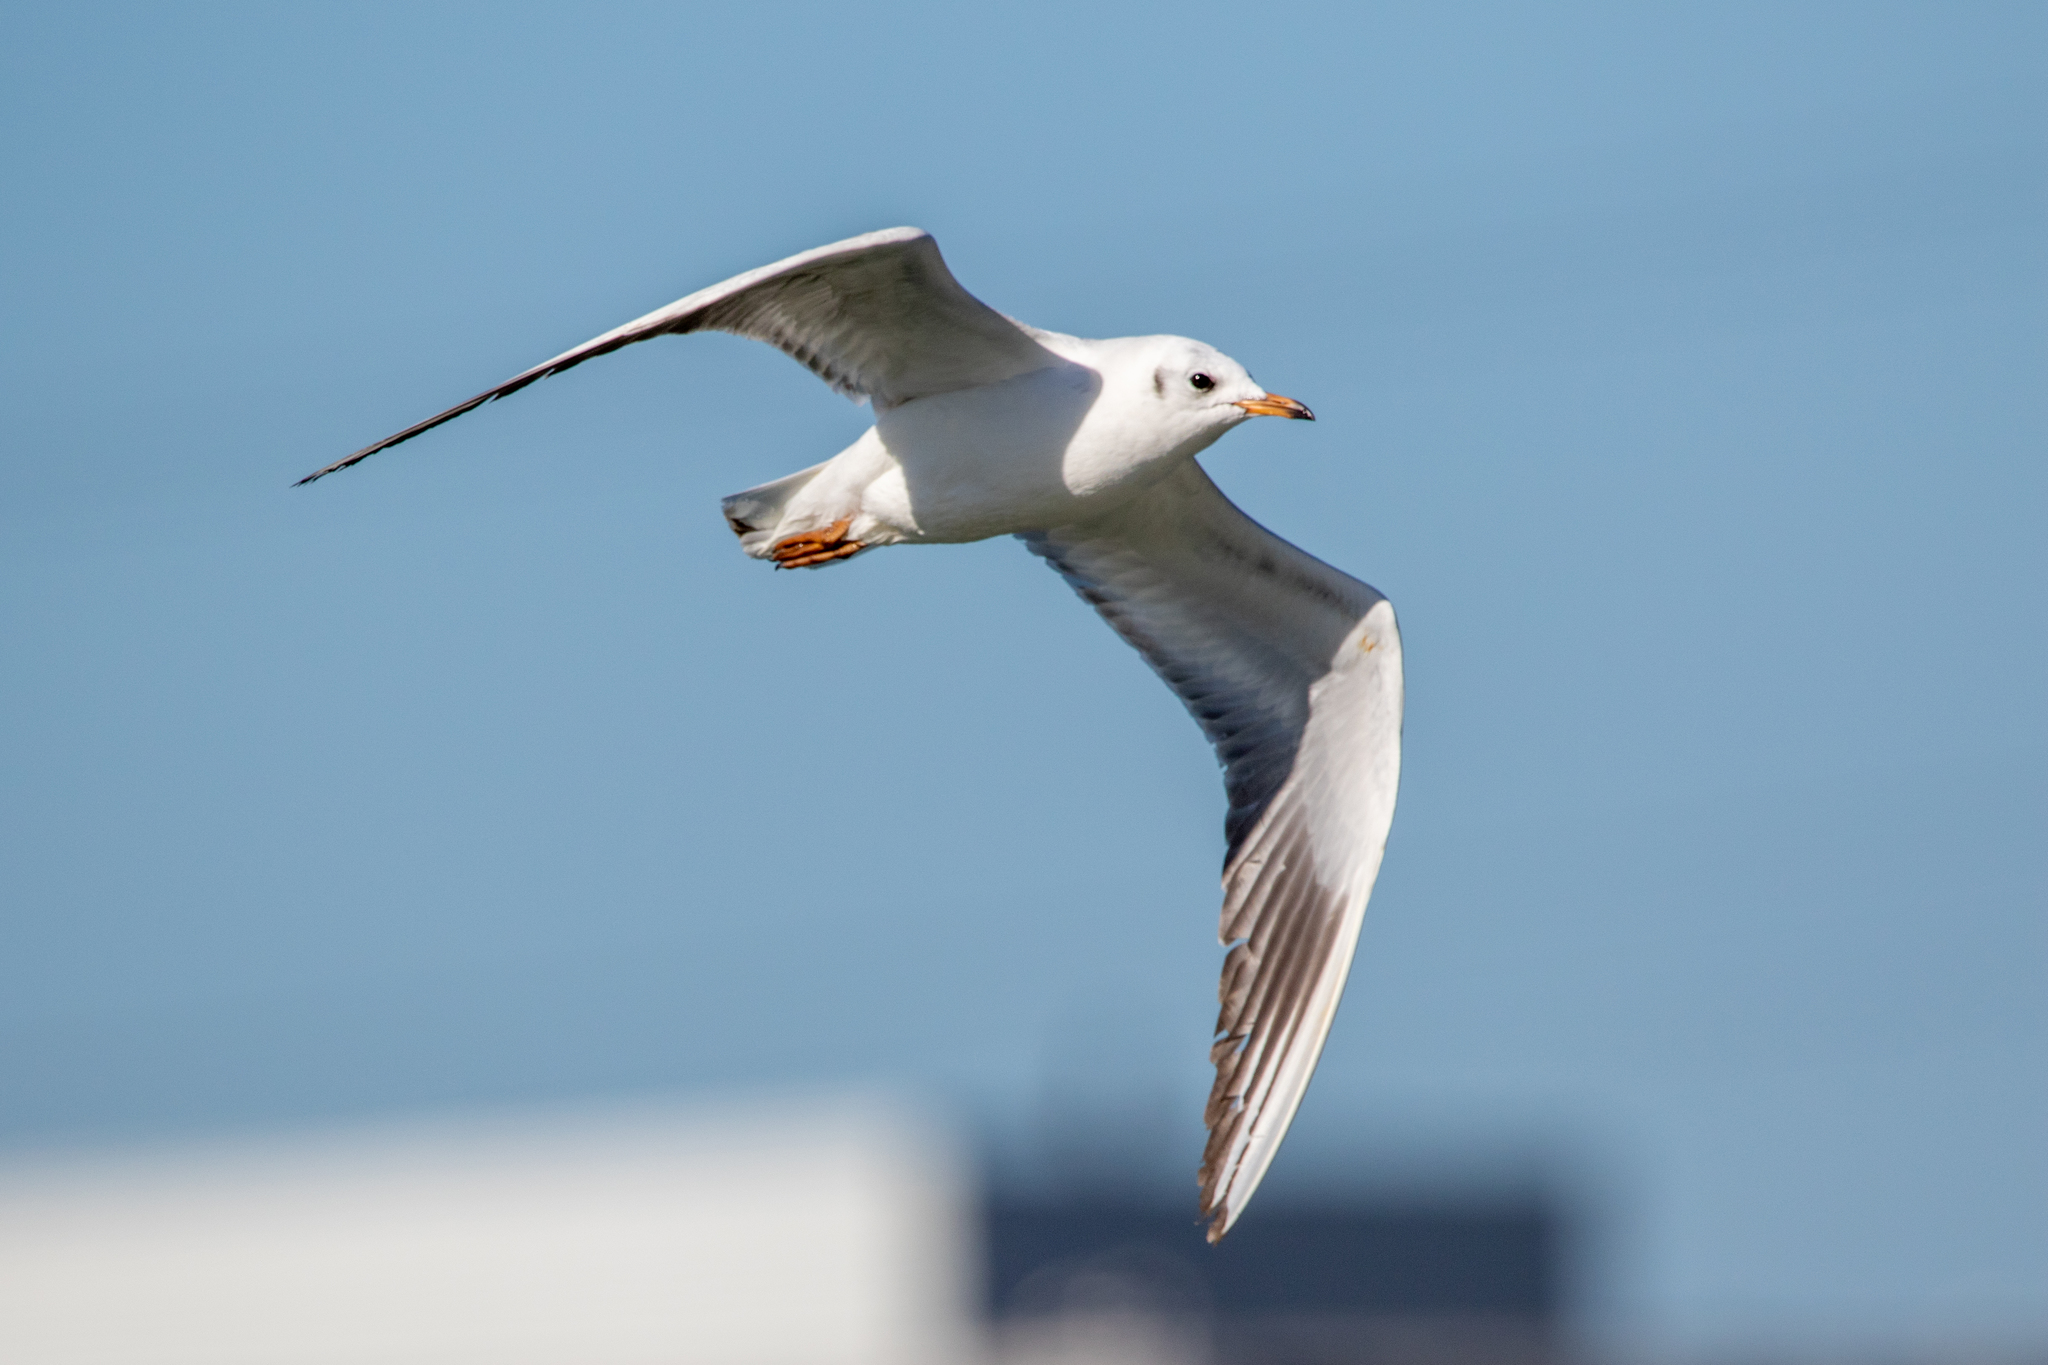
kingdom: Animalia
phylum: Chordata
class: Aves
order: Charadriiformes
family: Laridae
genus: Chroicocephalus
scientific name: Chroicocephalus ridibundus
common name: Black-headed gull
